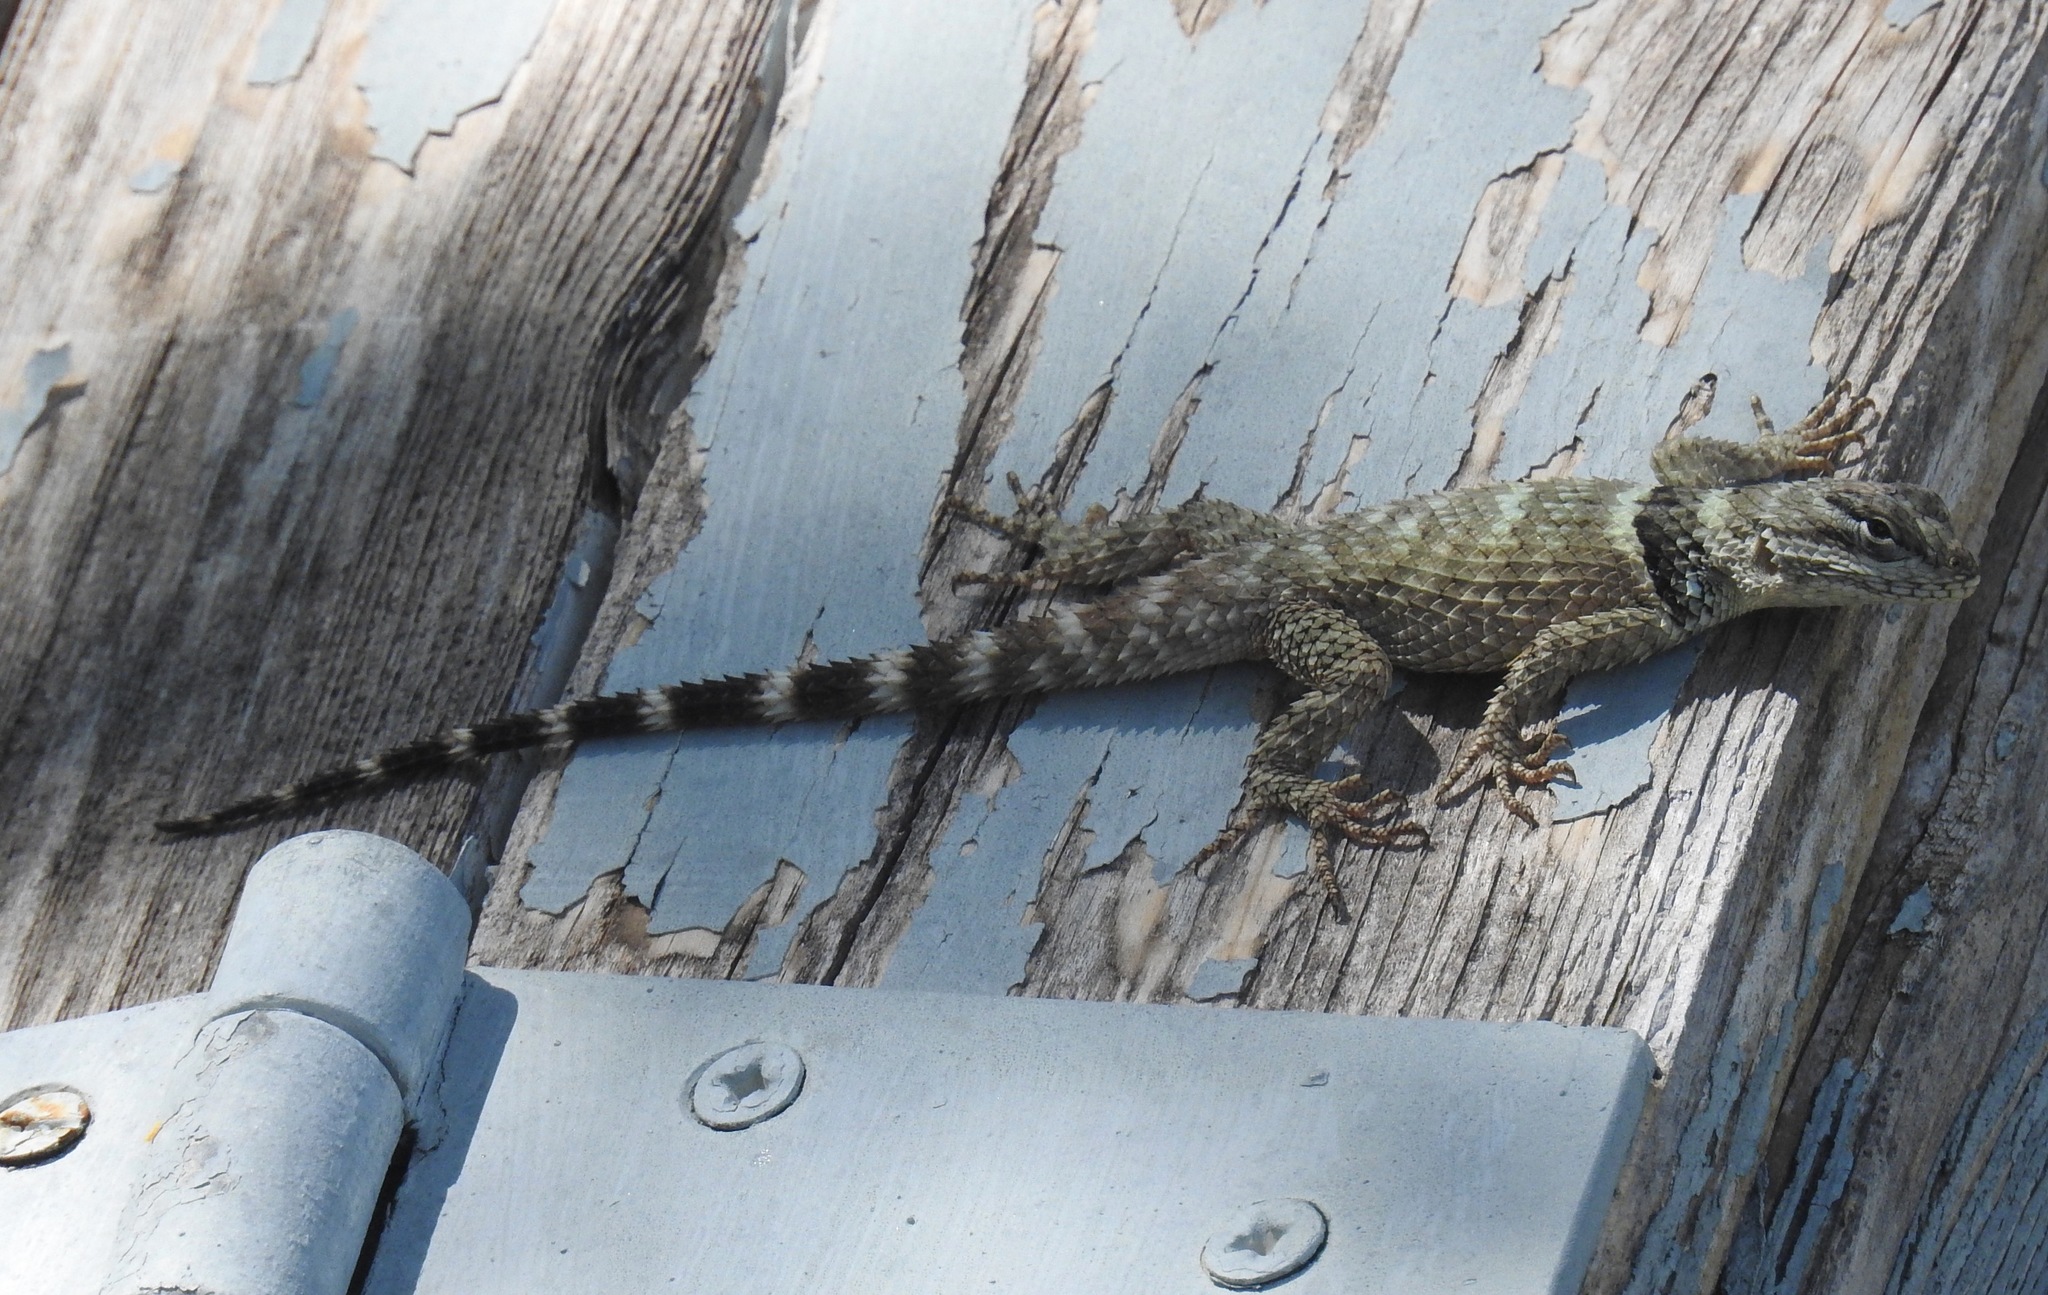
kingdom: Animalia
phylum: Chordata
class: Squamata
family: Phrynosomatidae
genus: Sceloporus
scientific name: Sceloporus poinsettii
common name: Crevice spiny lizard
